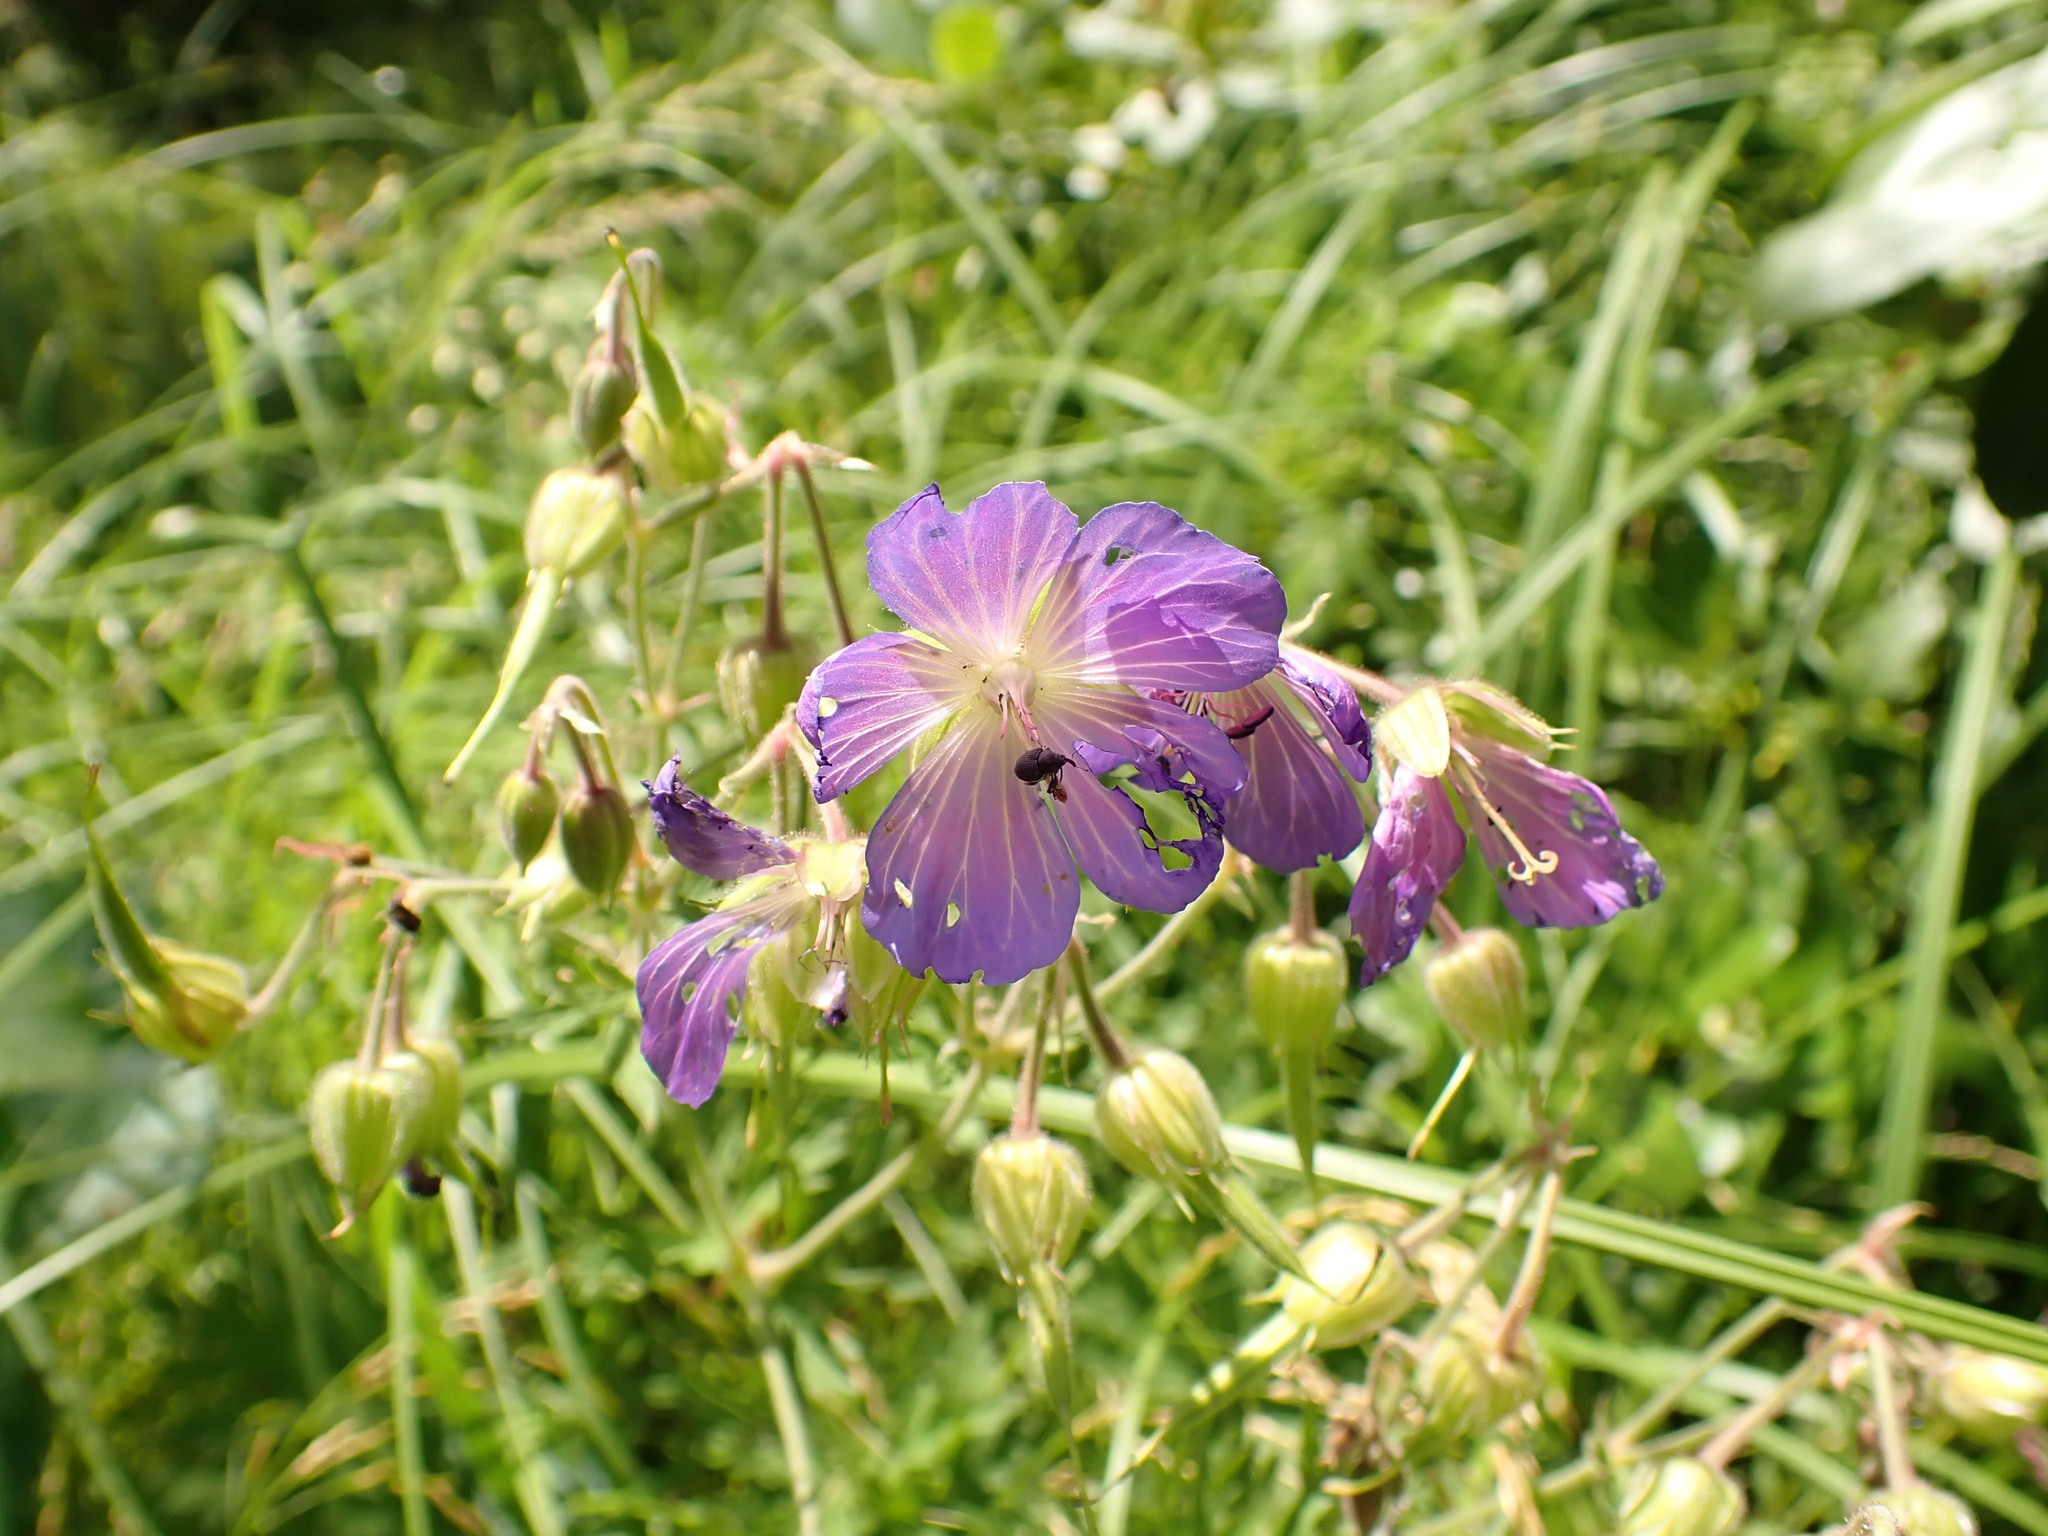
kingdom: Plantae
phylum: Tracheophyta
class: Magnoliopsida
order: Geraniales
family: Geraniaceae
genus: Geranium
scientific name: Geranium pratense
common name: Meadow crane's-bill
